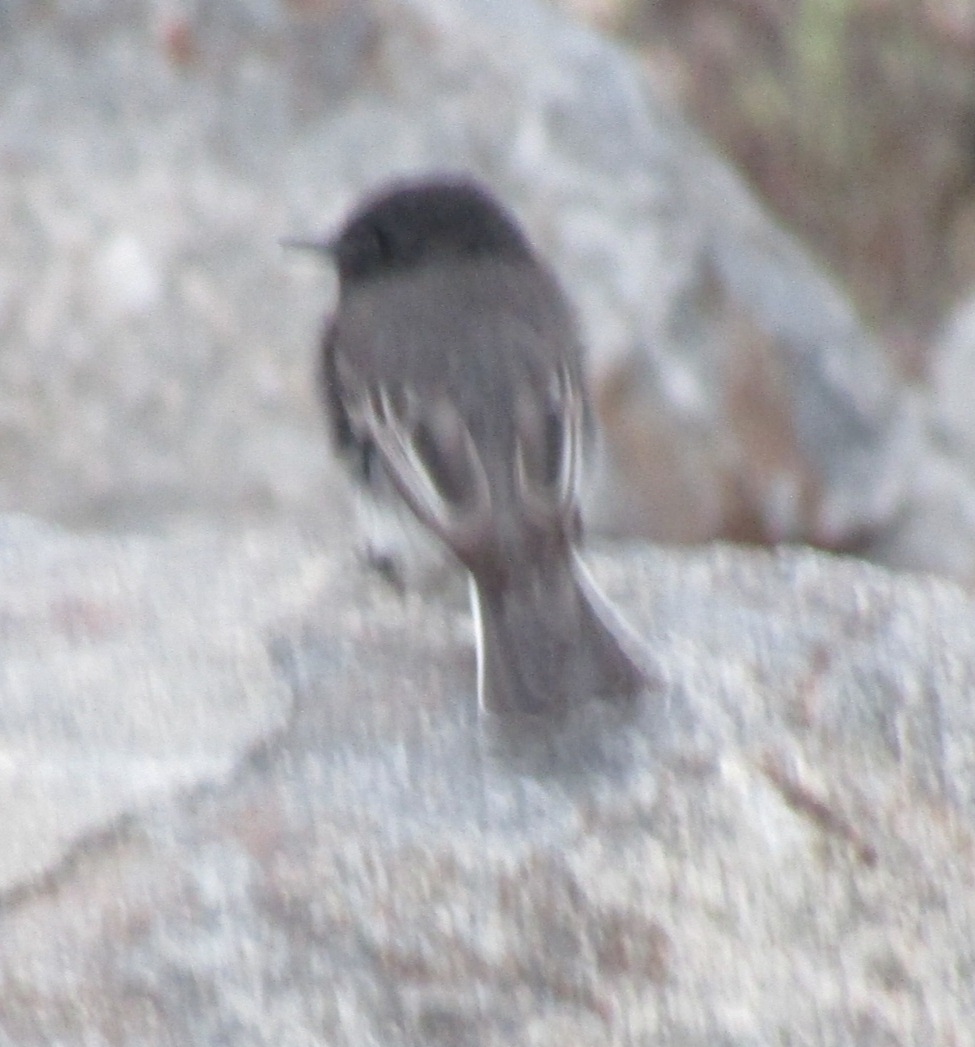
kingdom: Animalia
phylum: Chordata
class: Aves
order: Passeriformes
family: Tyrannidae
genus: Sayornis
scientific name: Sayornis nigricans
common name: Black phoebe
